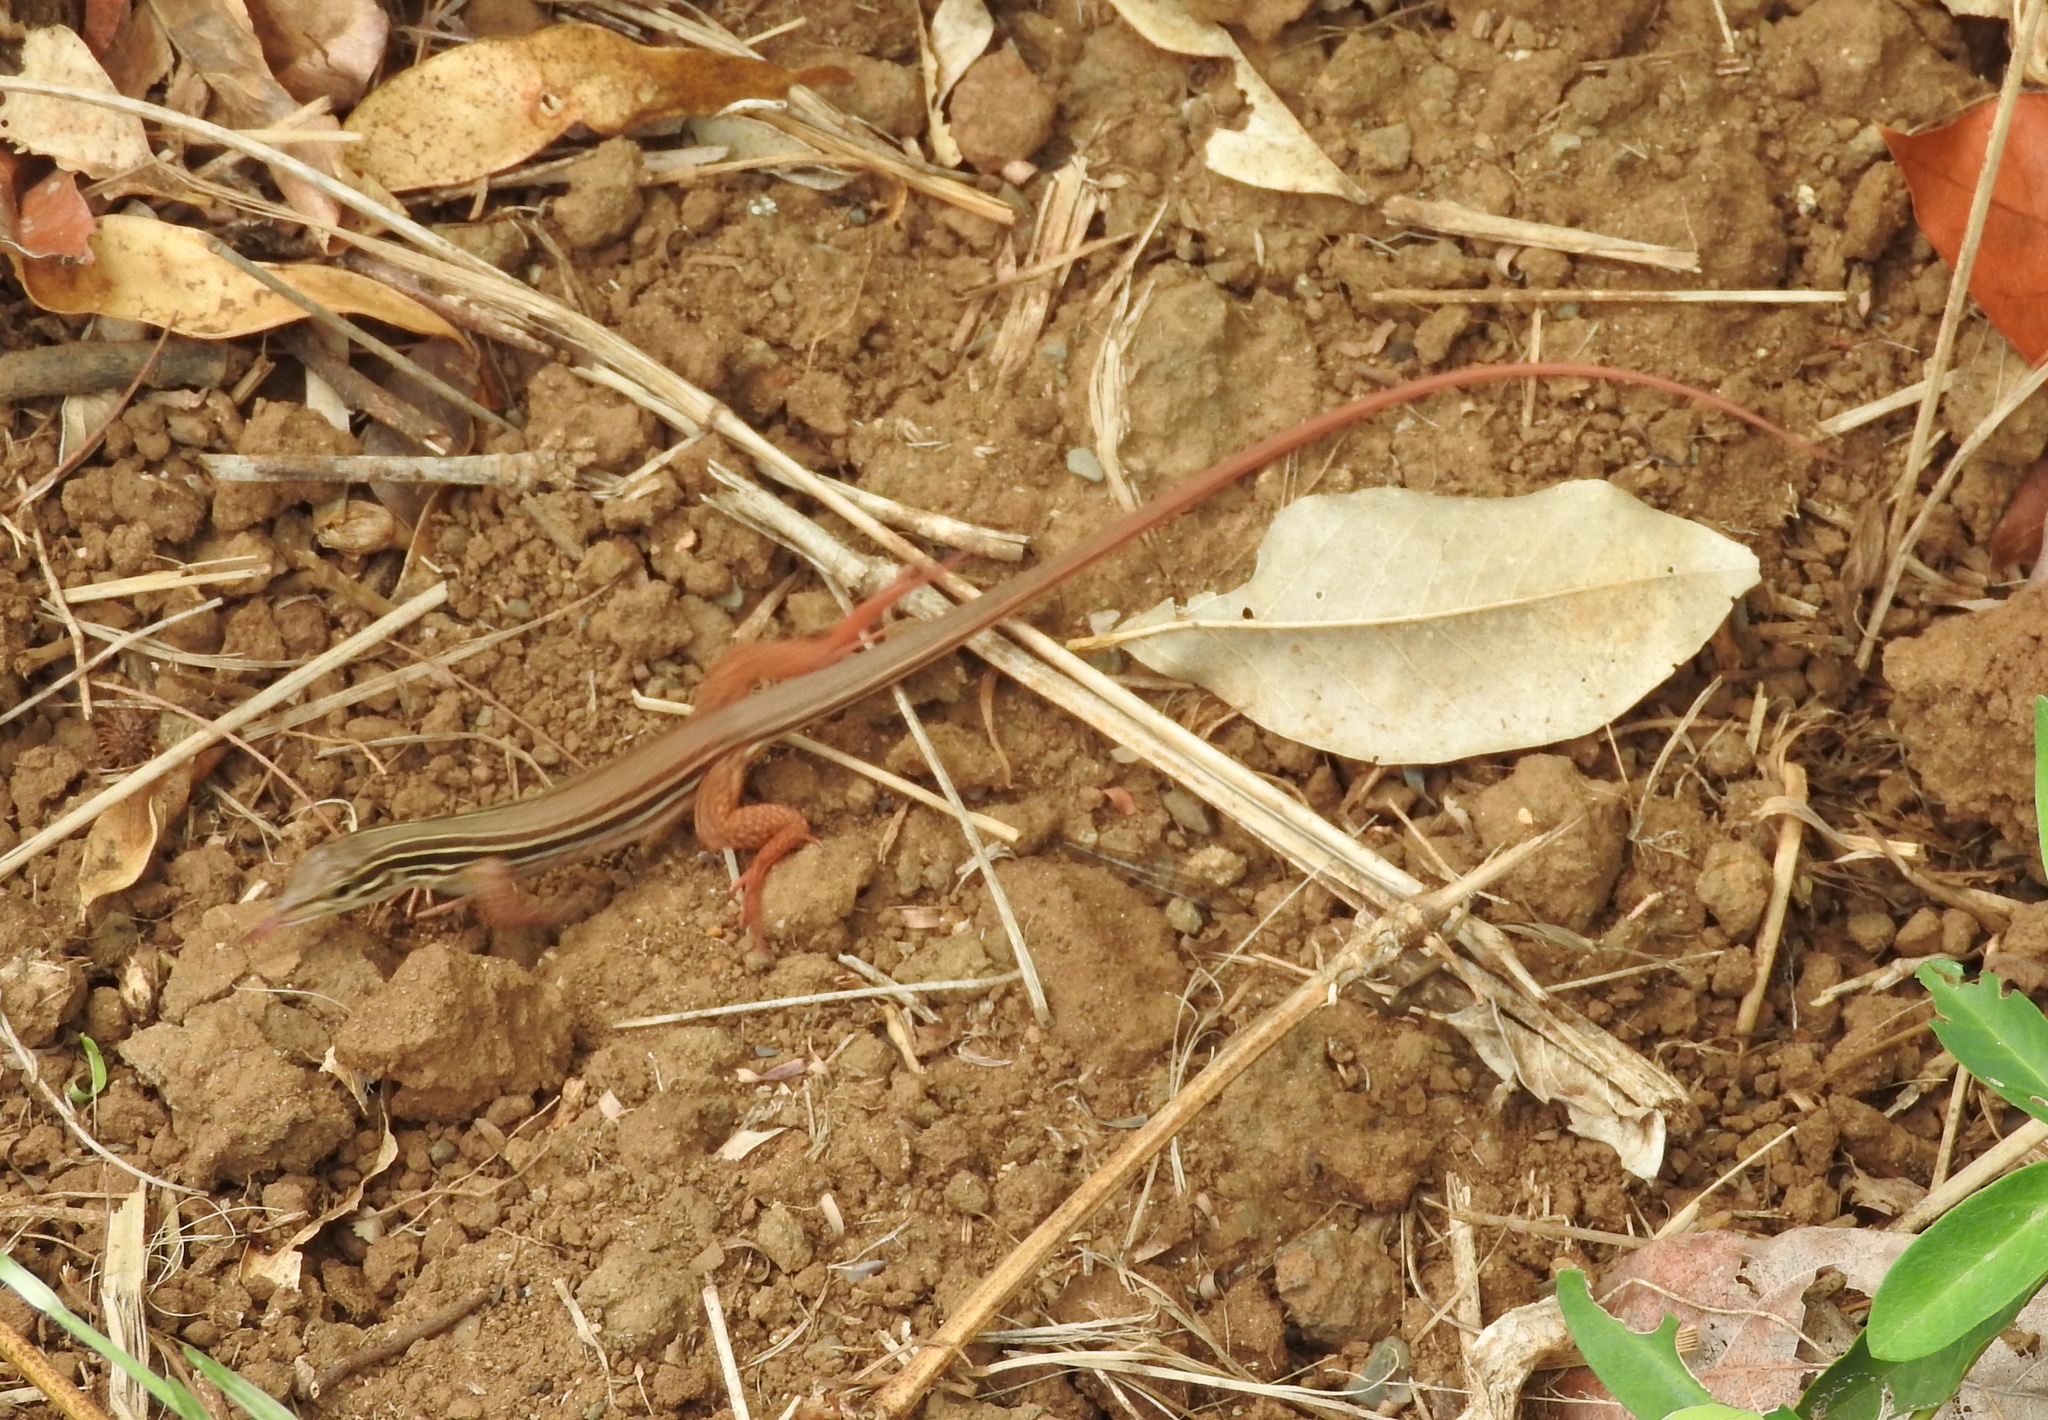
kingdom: Animalia
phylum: Chordata
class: Squamata
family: Teiidae
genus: Aspidoscelis
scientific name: Aspidoscelis costatus
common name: Western mexico whiptail
